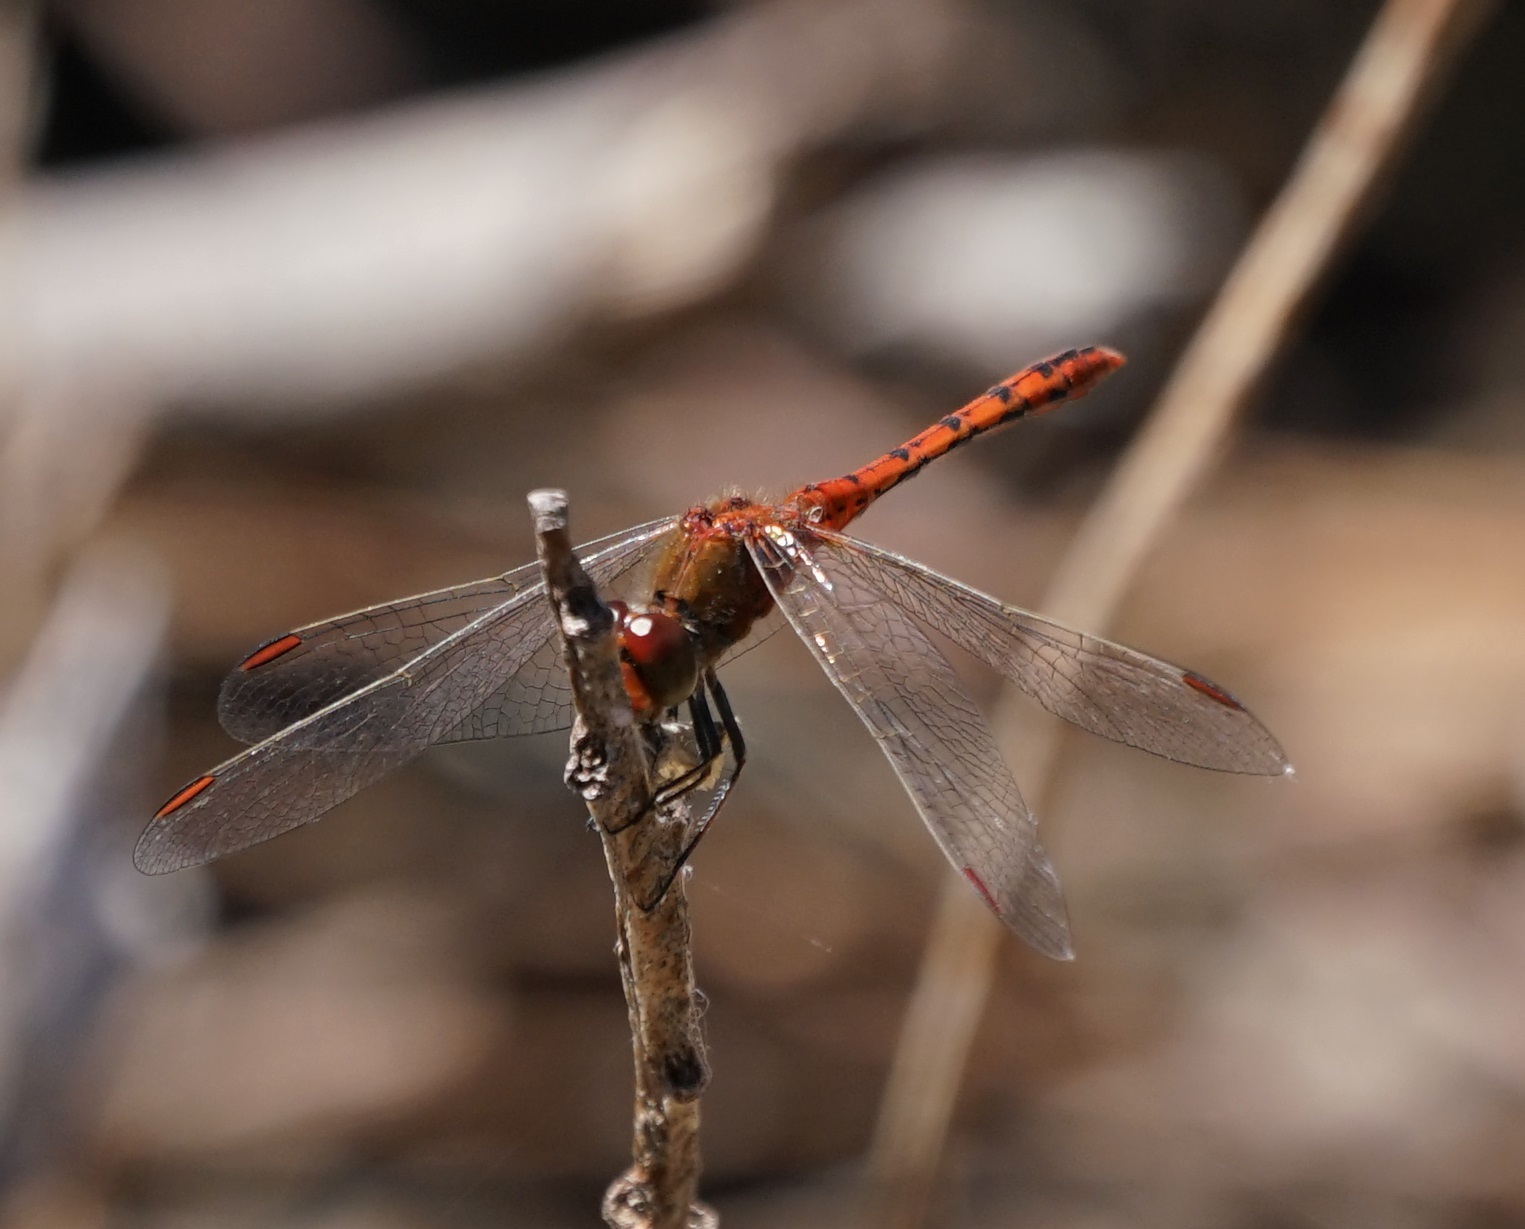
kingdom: Animalia
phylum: Arthropoda
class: Insecta
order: Odonata
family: Libellulidae
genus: Diplacodes
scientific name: Diplacodes bipunctata
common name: Red percher dragonfly
